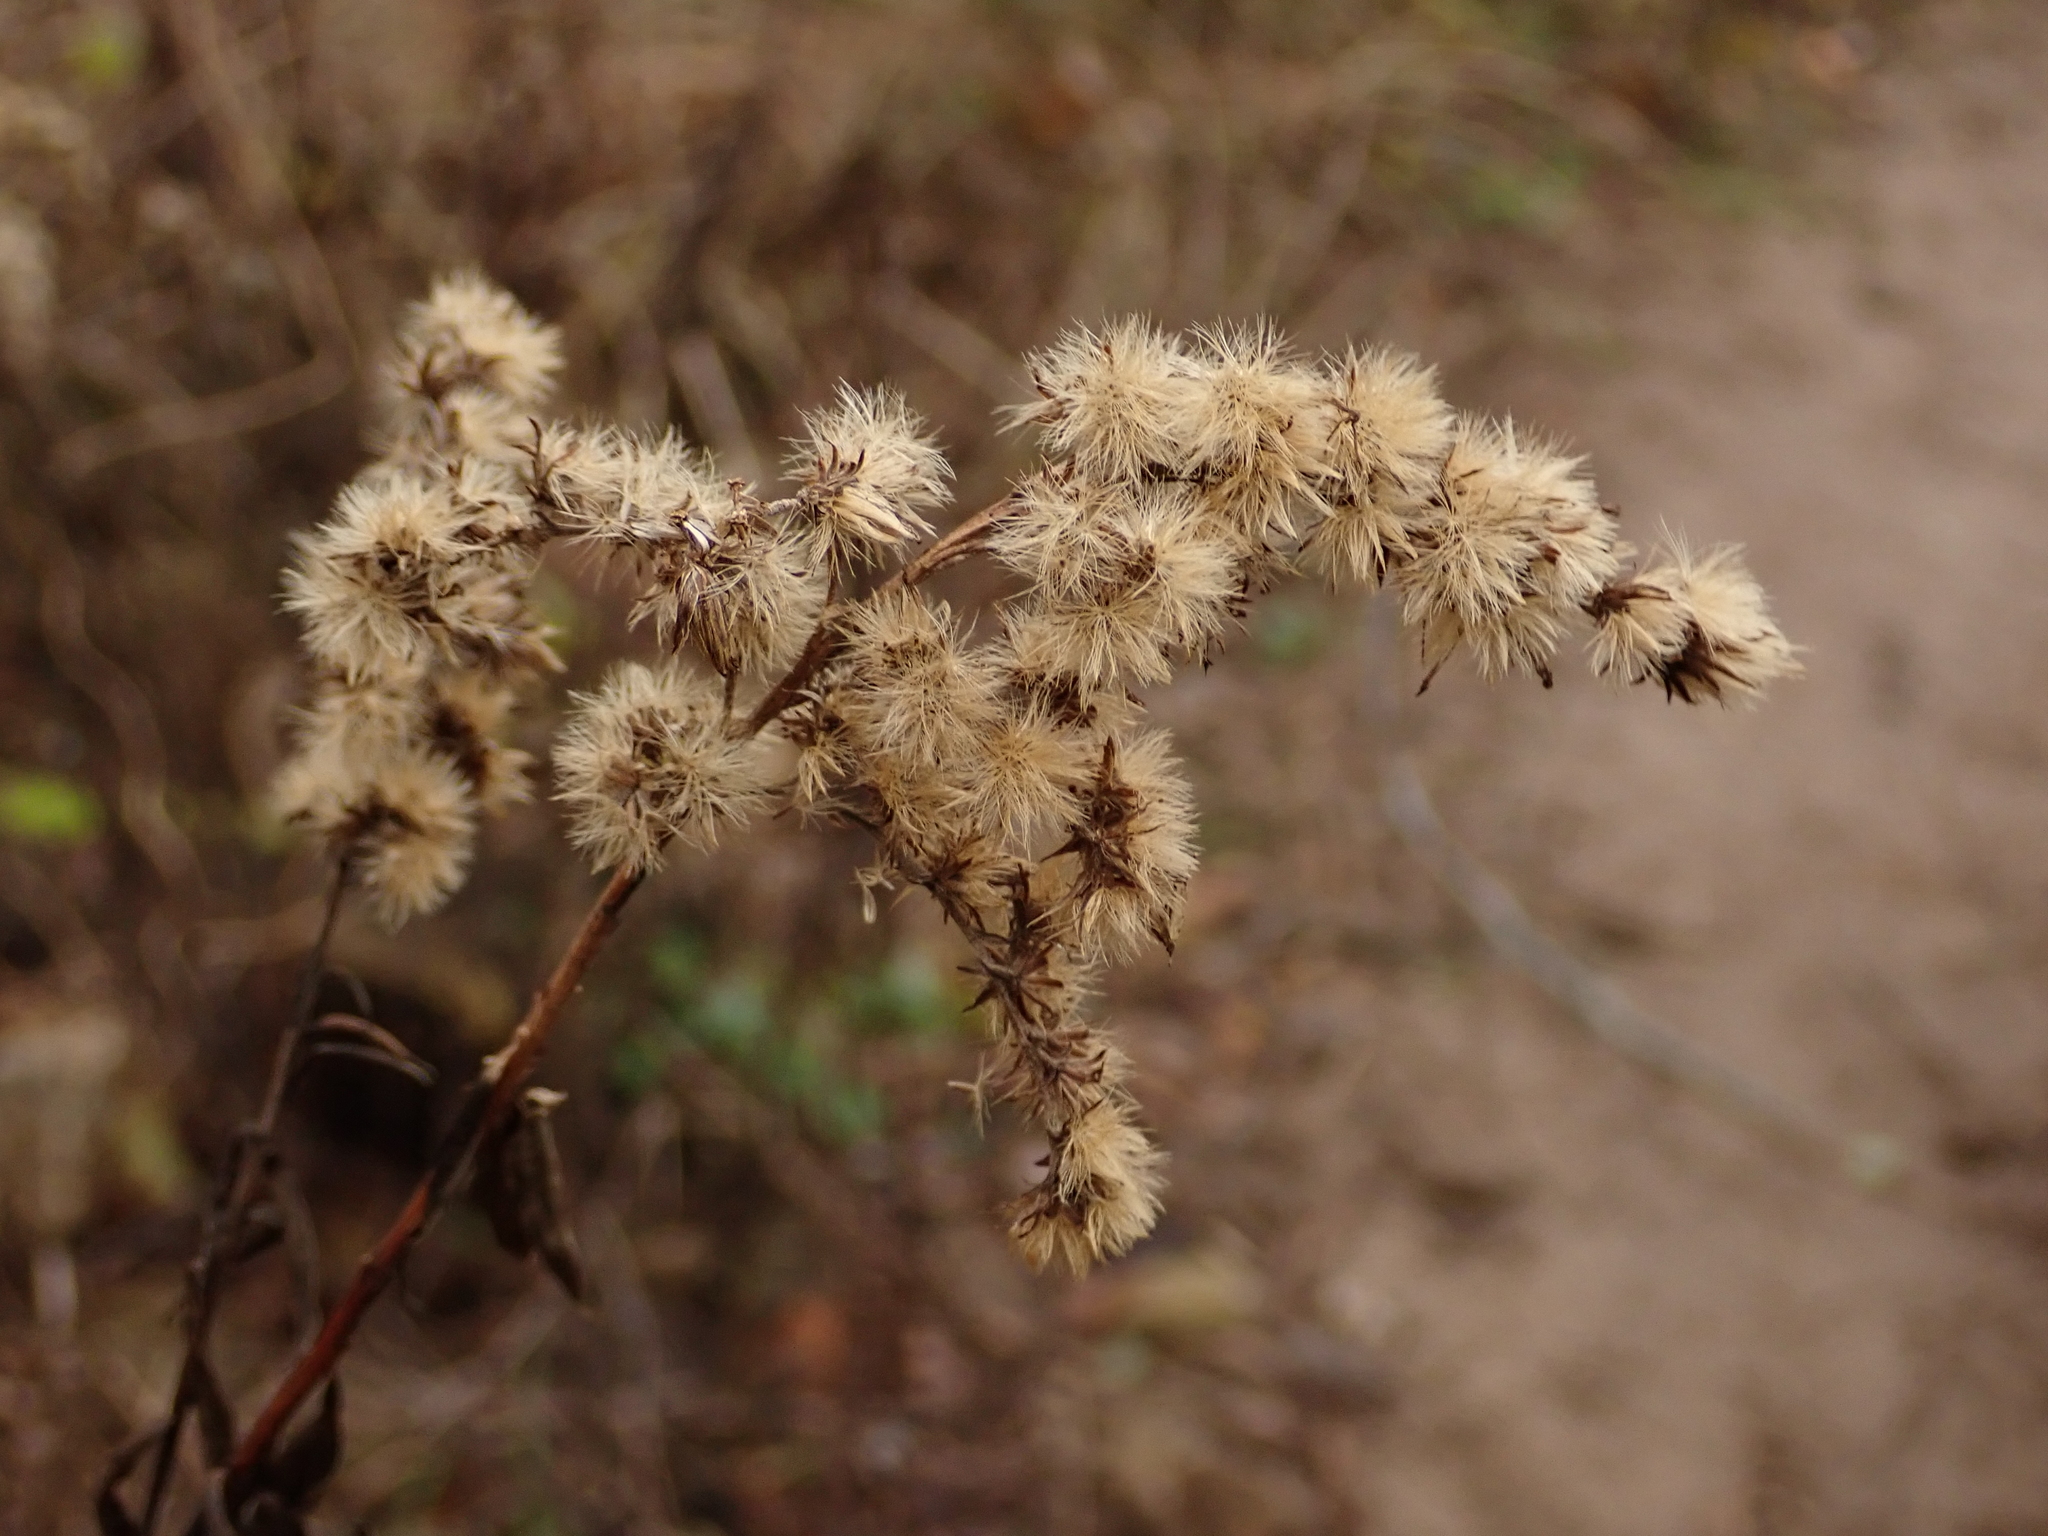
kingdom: Plantae
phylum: Tracheophyta
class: Magnoliopsida
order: Asterales
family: Asteraceae
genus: Solidago
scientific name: Solidago gigantea
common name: Giant goldenrod
